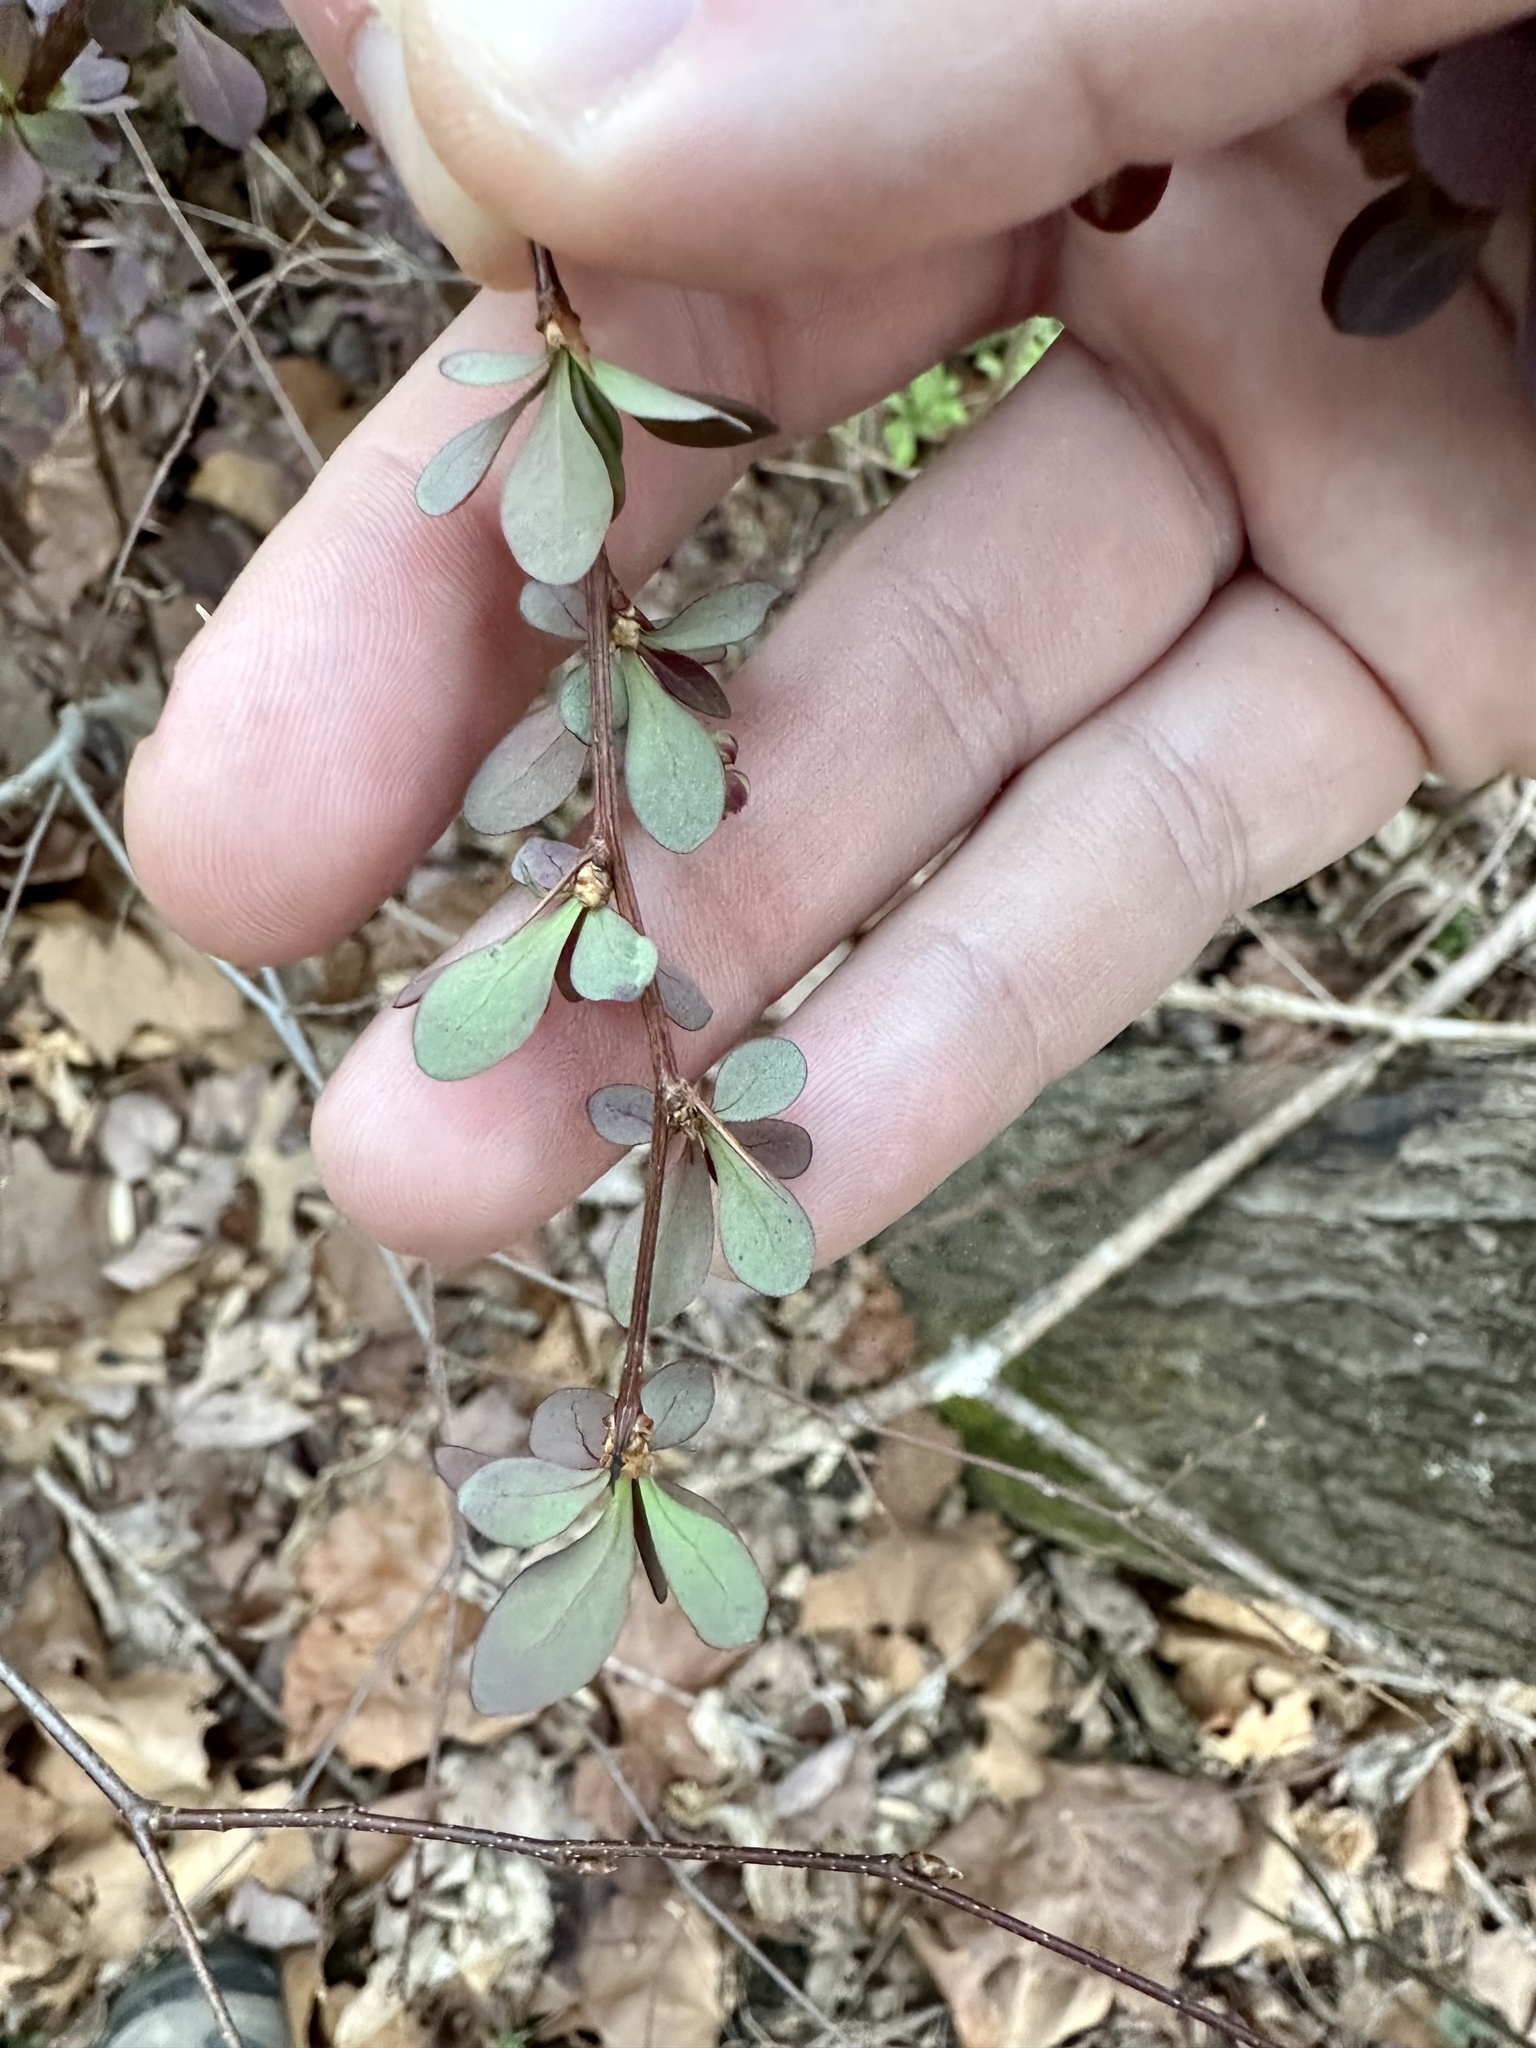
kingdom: Plantae
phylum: Tracheophyta
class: Magnoliopsida
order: Ranunculales
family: Berberidaceae
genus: Berberis
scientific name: Berberis thunbergii
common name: Japanese barberry
